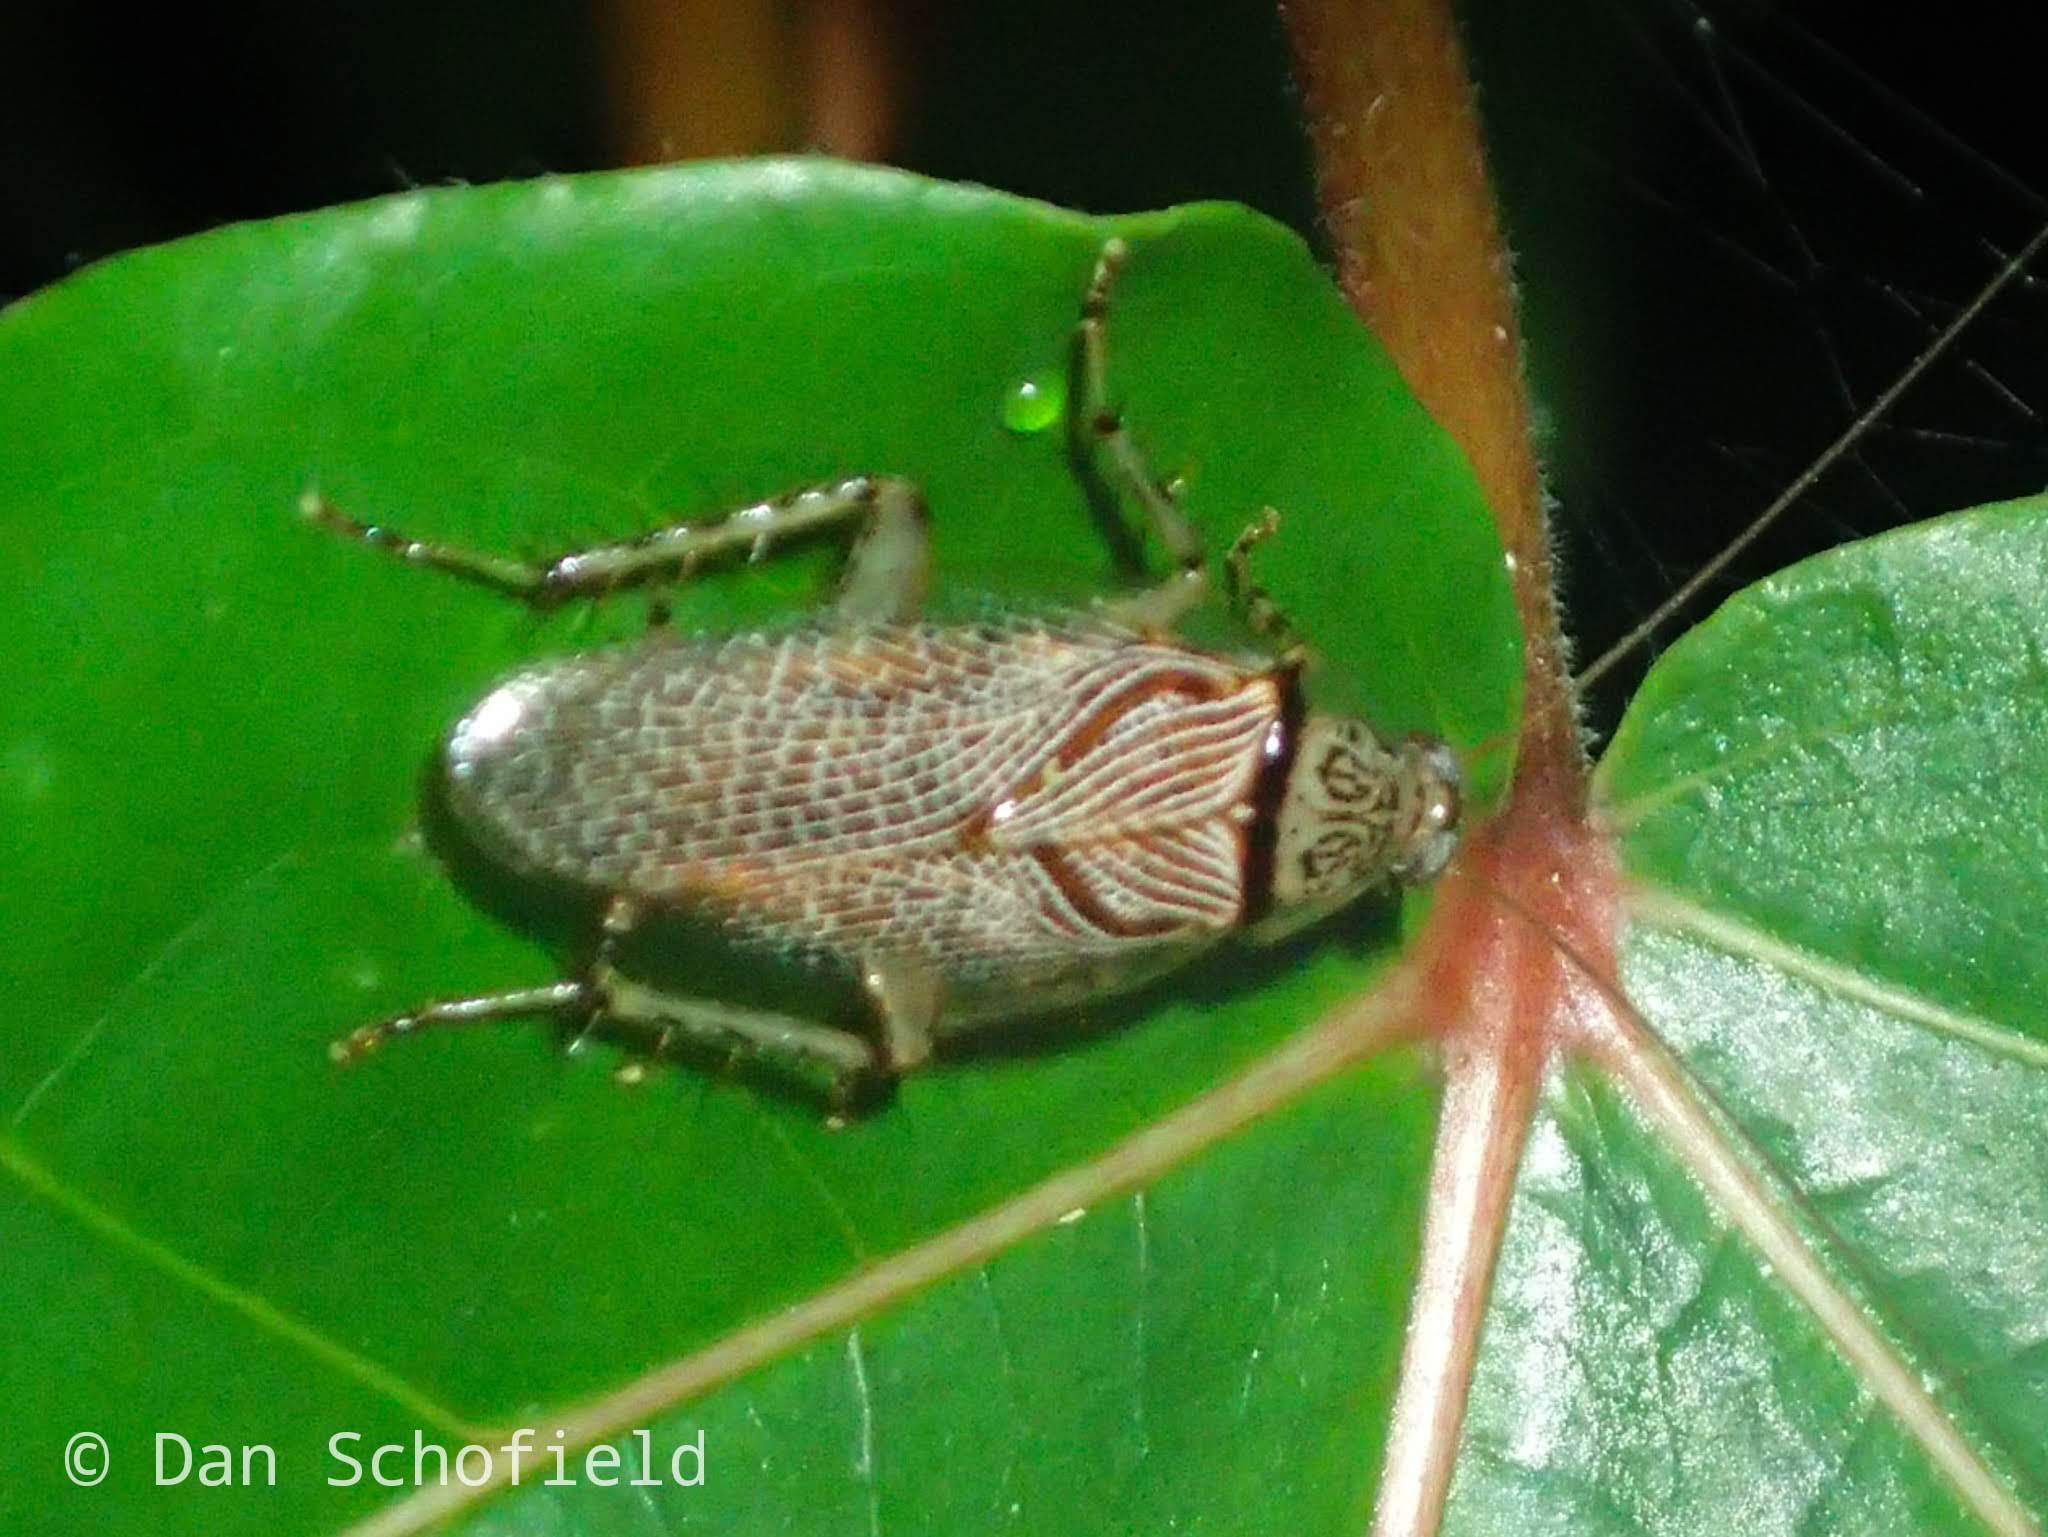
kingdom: Animalia
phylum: Arthropoda
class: Insecta
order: Blattodea
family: Ectobiidae
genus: Balta
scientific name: Balta notulata
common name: Cockroach
